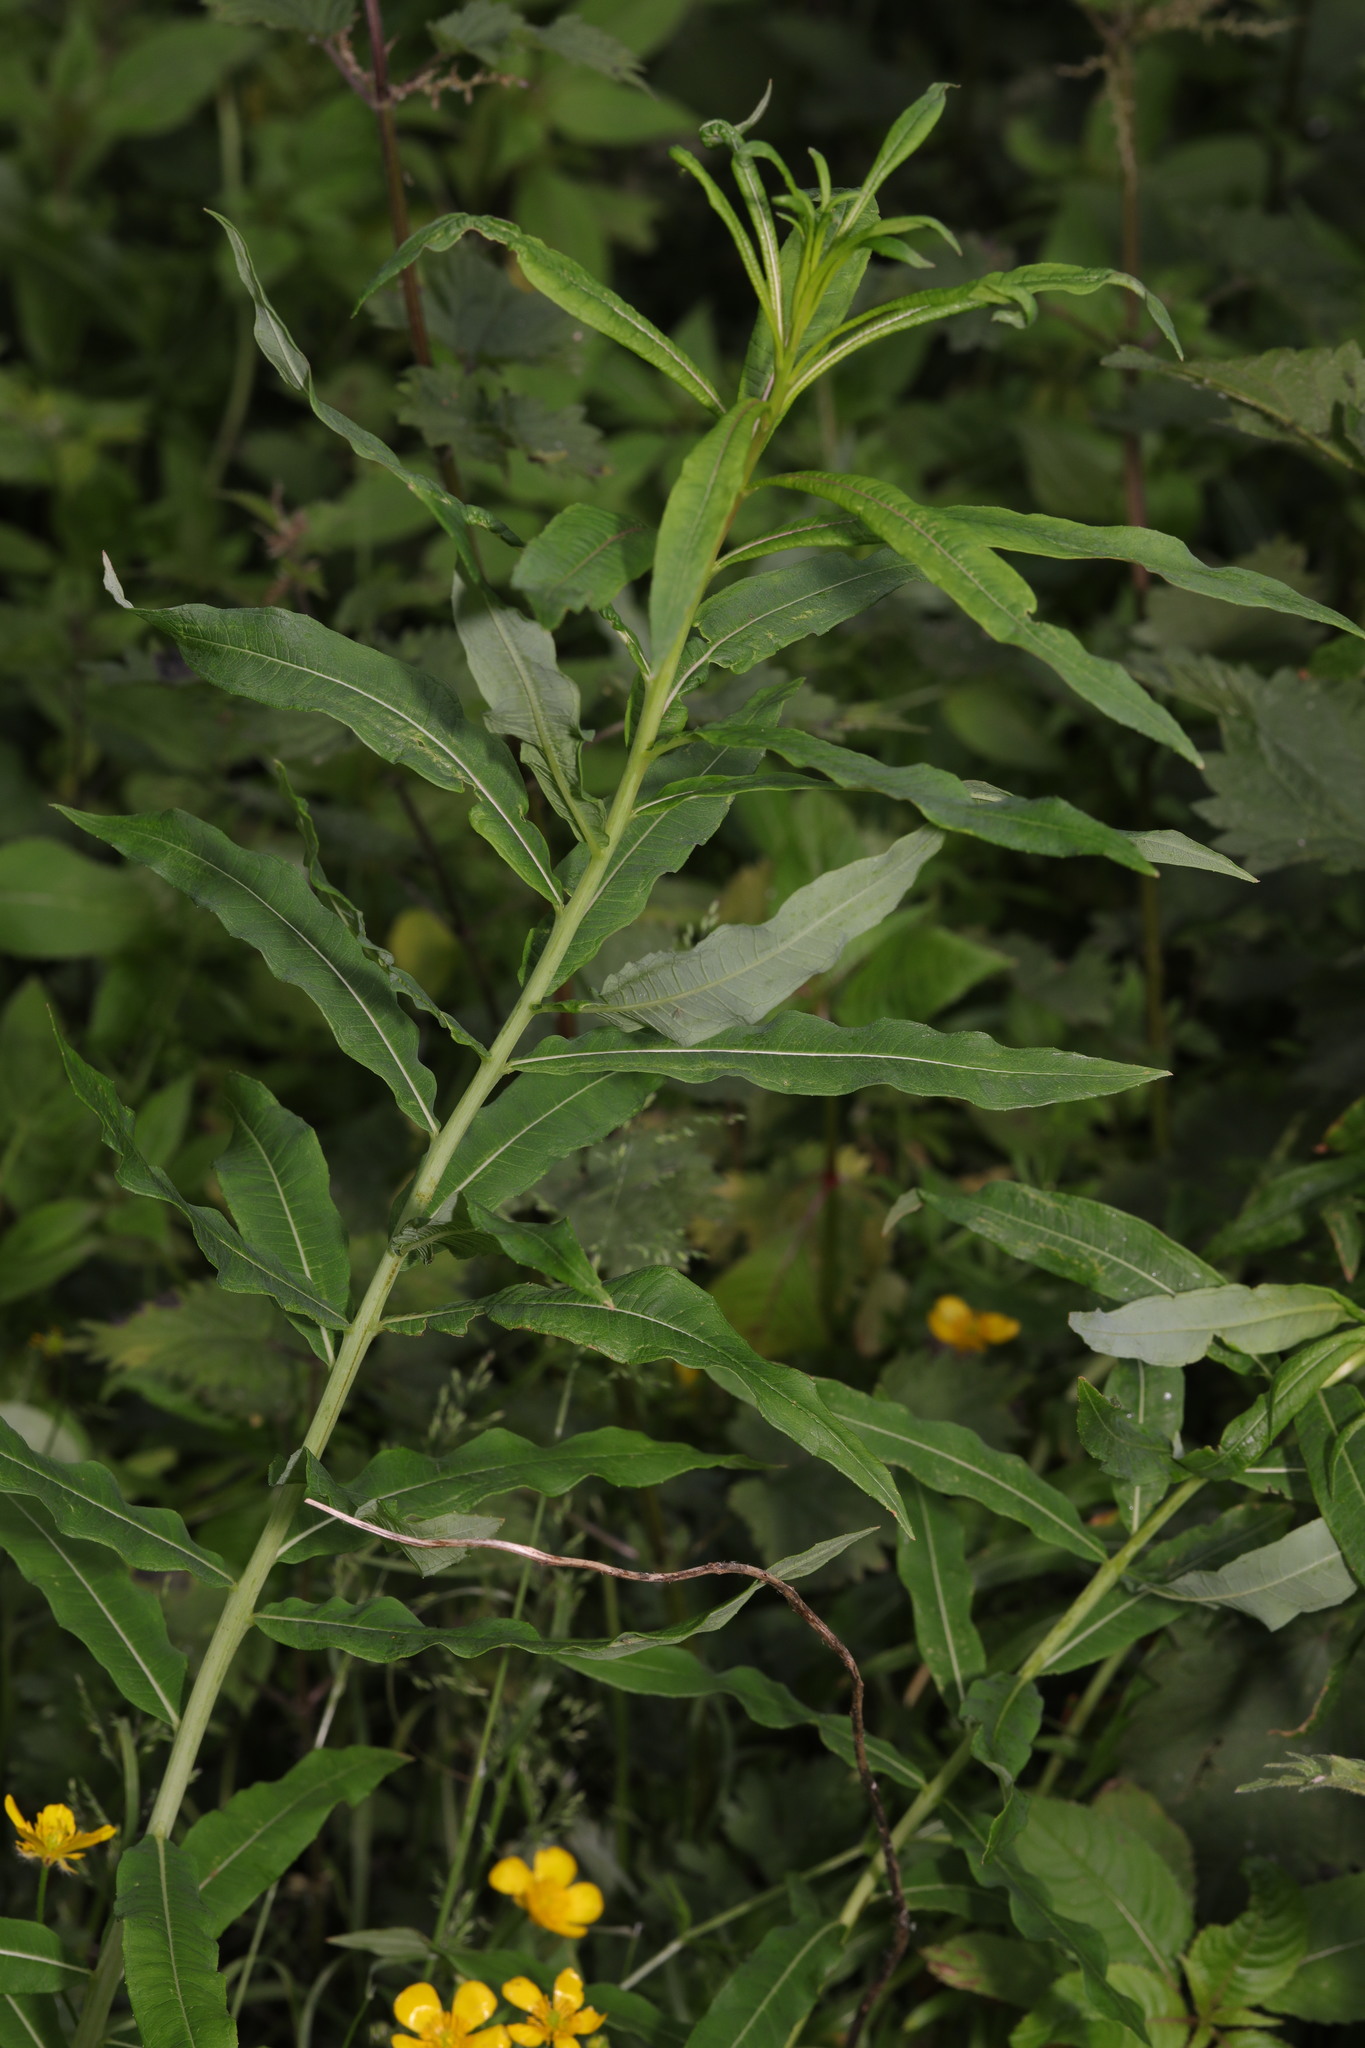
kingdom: Plantae
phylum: Tracheophyta
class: Magnoliopsida
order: Myrtales
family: Onagraceae
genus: Chamaenerion
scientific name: Chamaenerion angustifolium
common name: Fireweed
